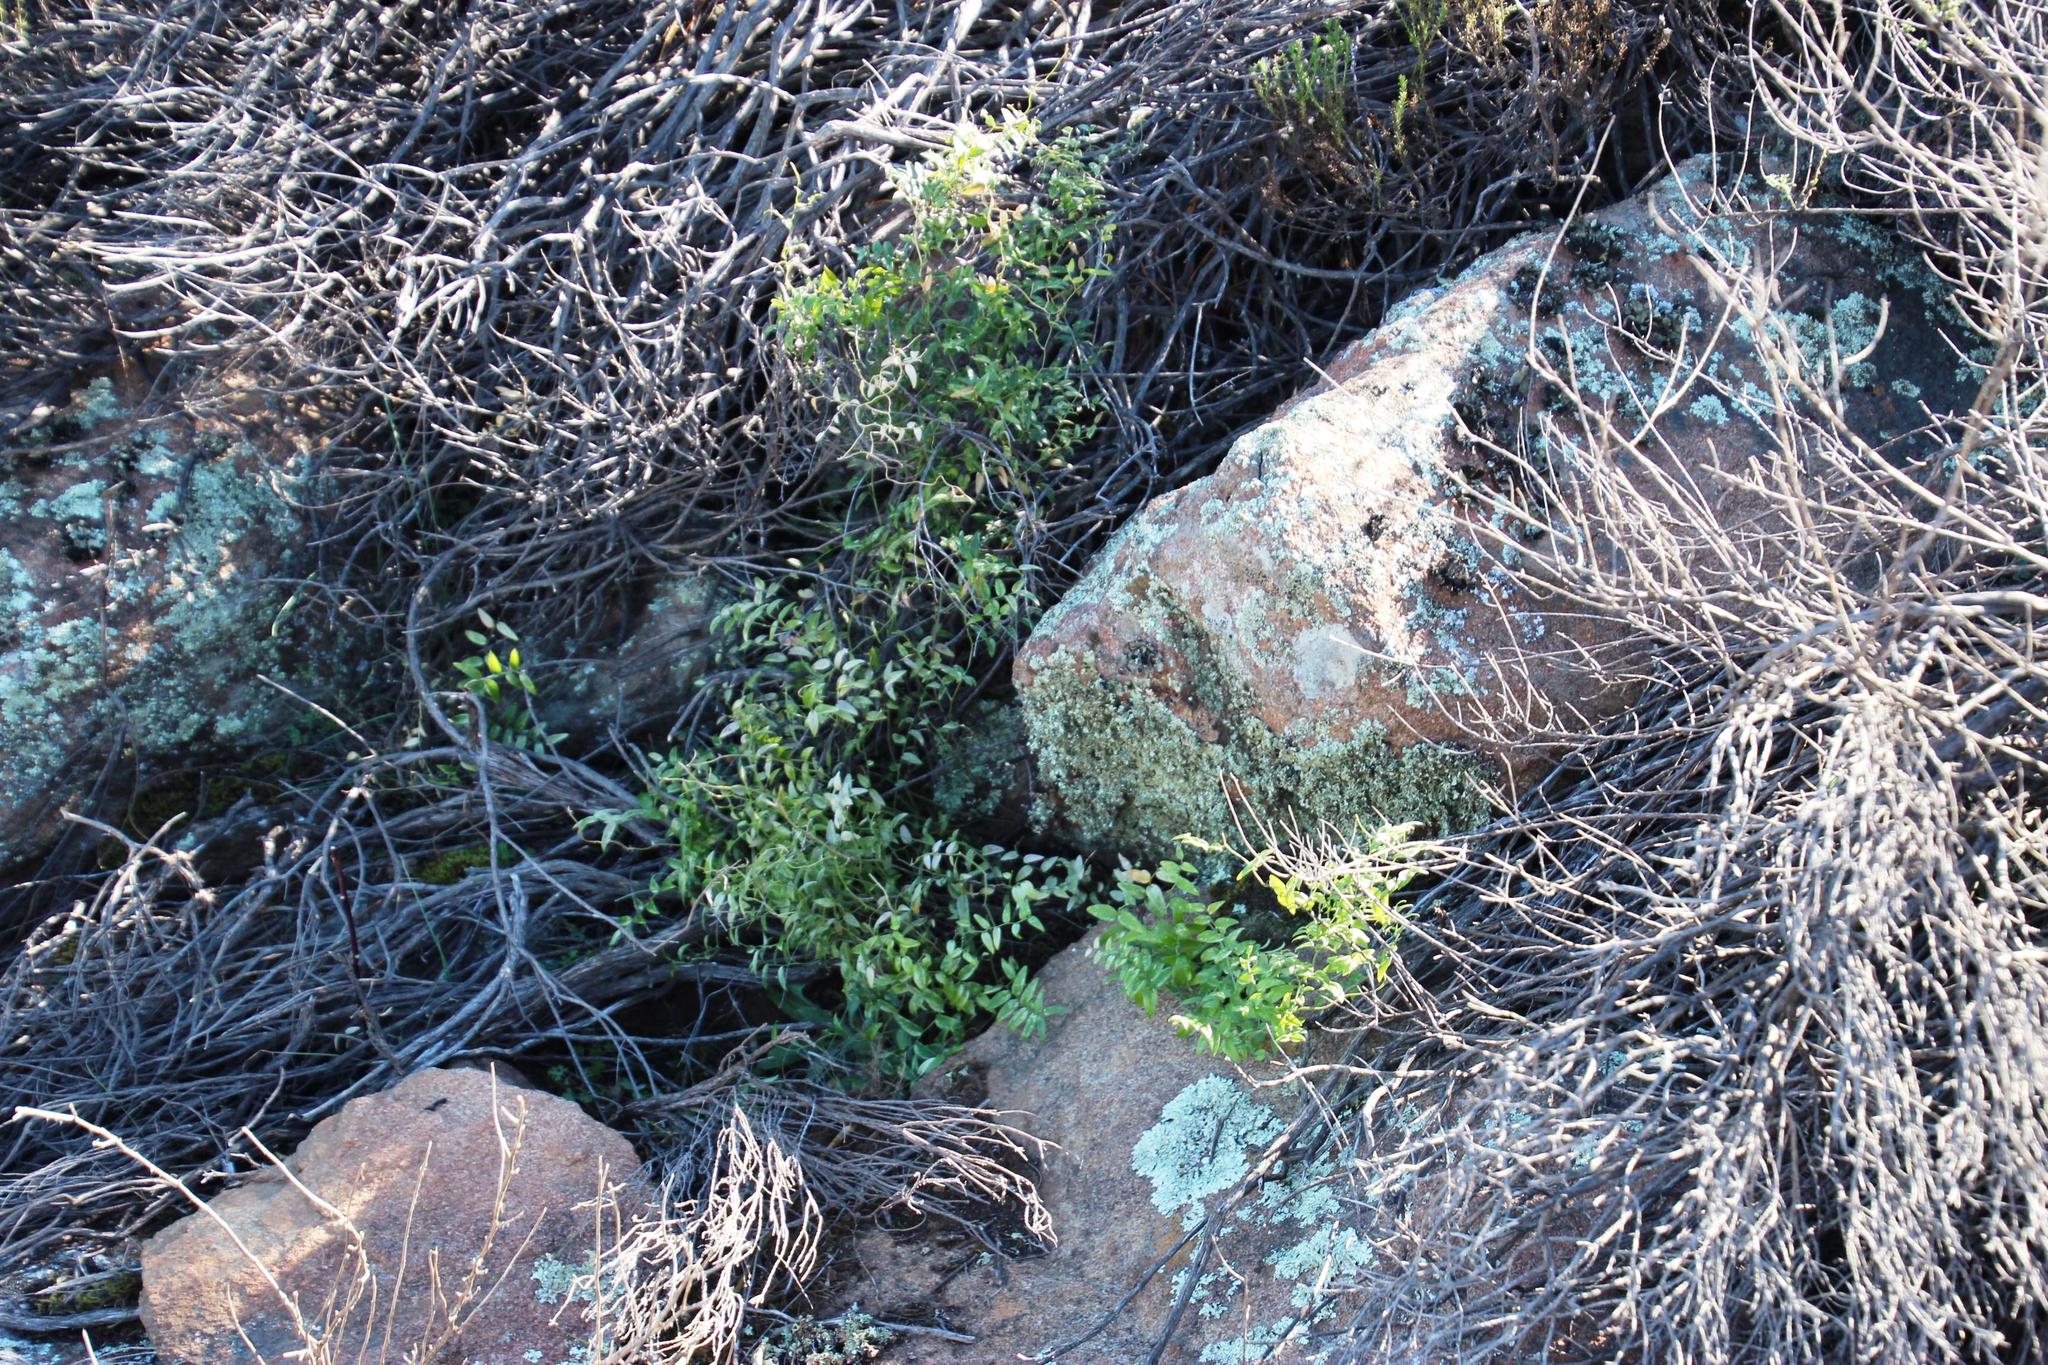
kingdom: Plantae
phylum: Tracheophyta
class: Liliopsida
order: Asparagales
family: Asparagaceae
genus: Asparagus
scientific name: Asparagus asparagoides
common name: African asparagus fern
